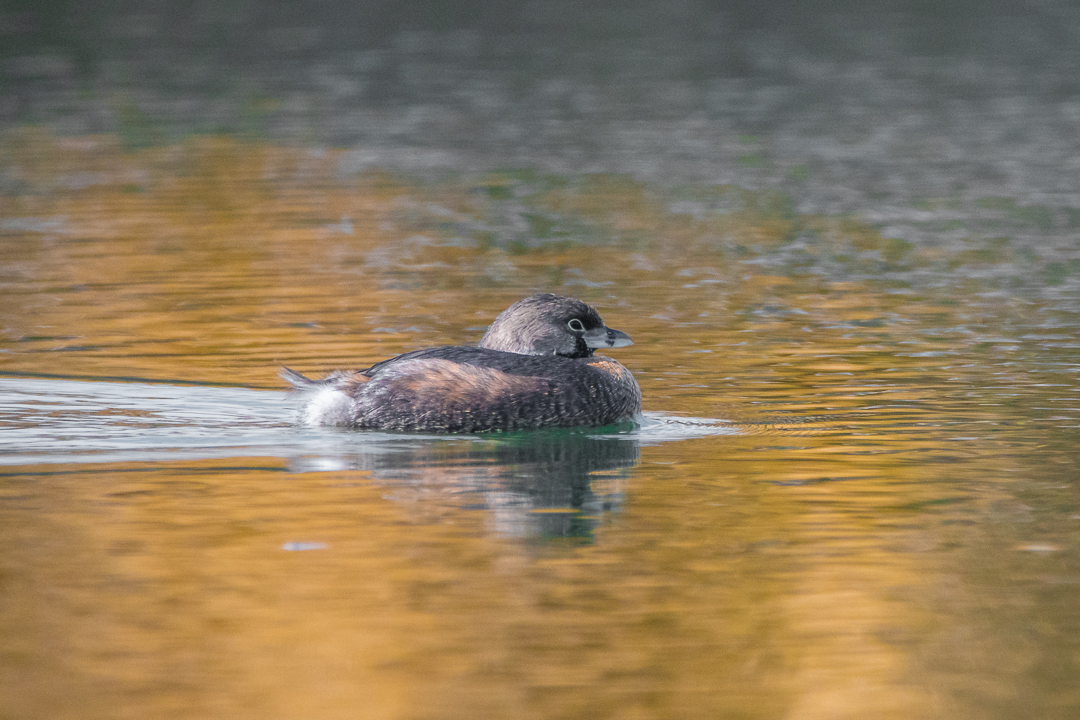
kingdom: Animalia
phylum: Chordata
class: Aves
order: Podicipediformes
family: Podicipedidae
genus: Podilymbus
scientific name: Podilymbus podiceps
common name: Pied-billed grebe
